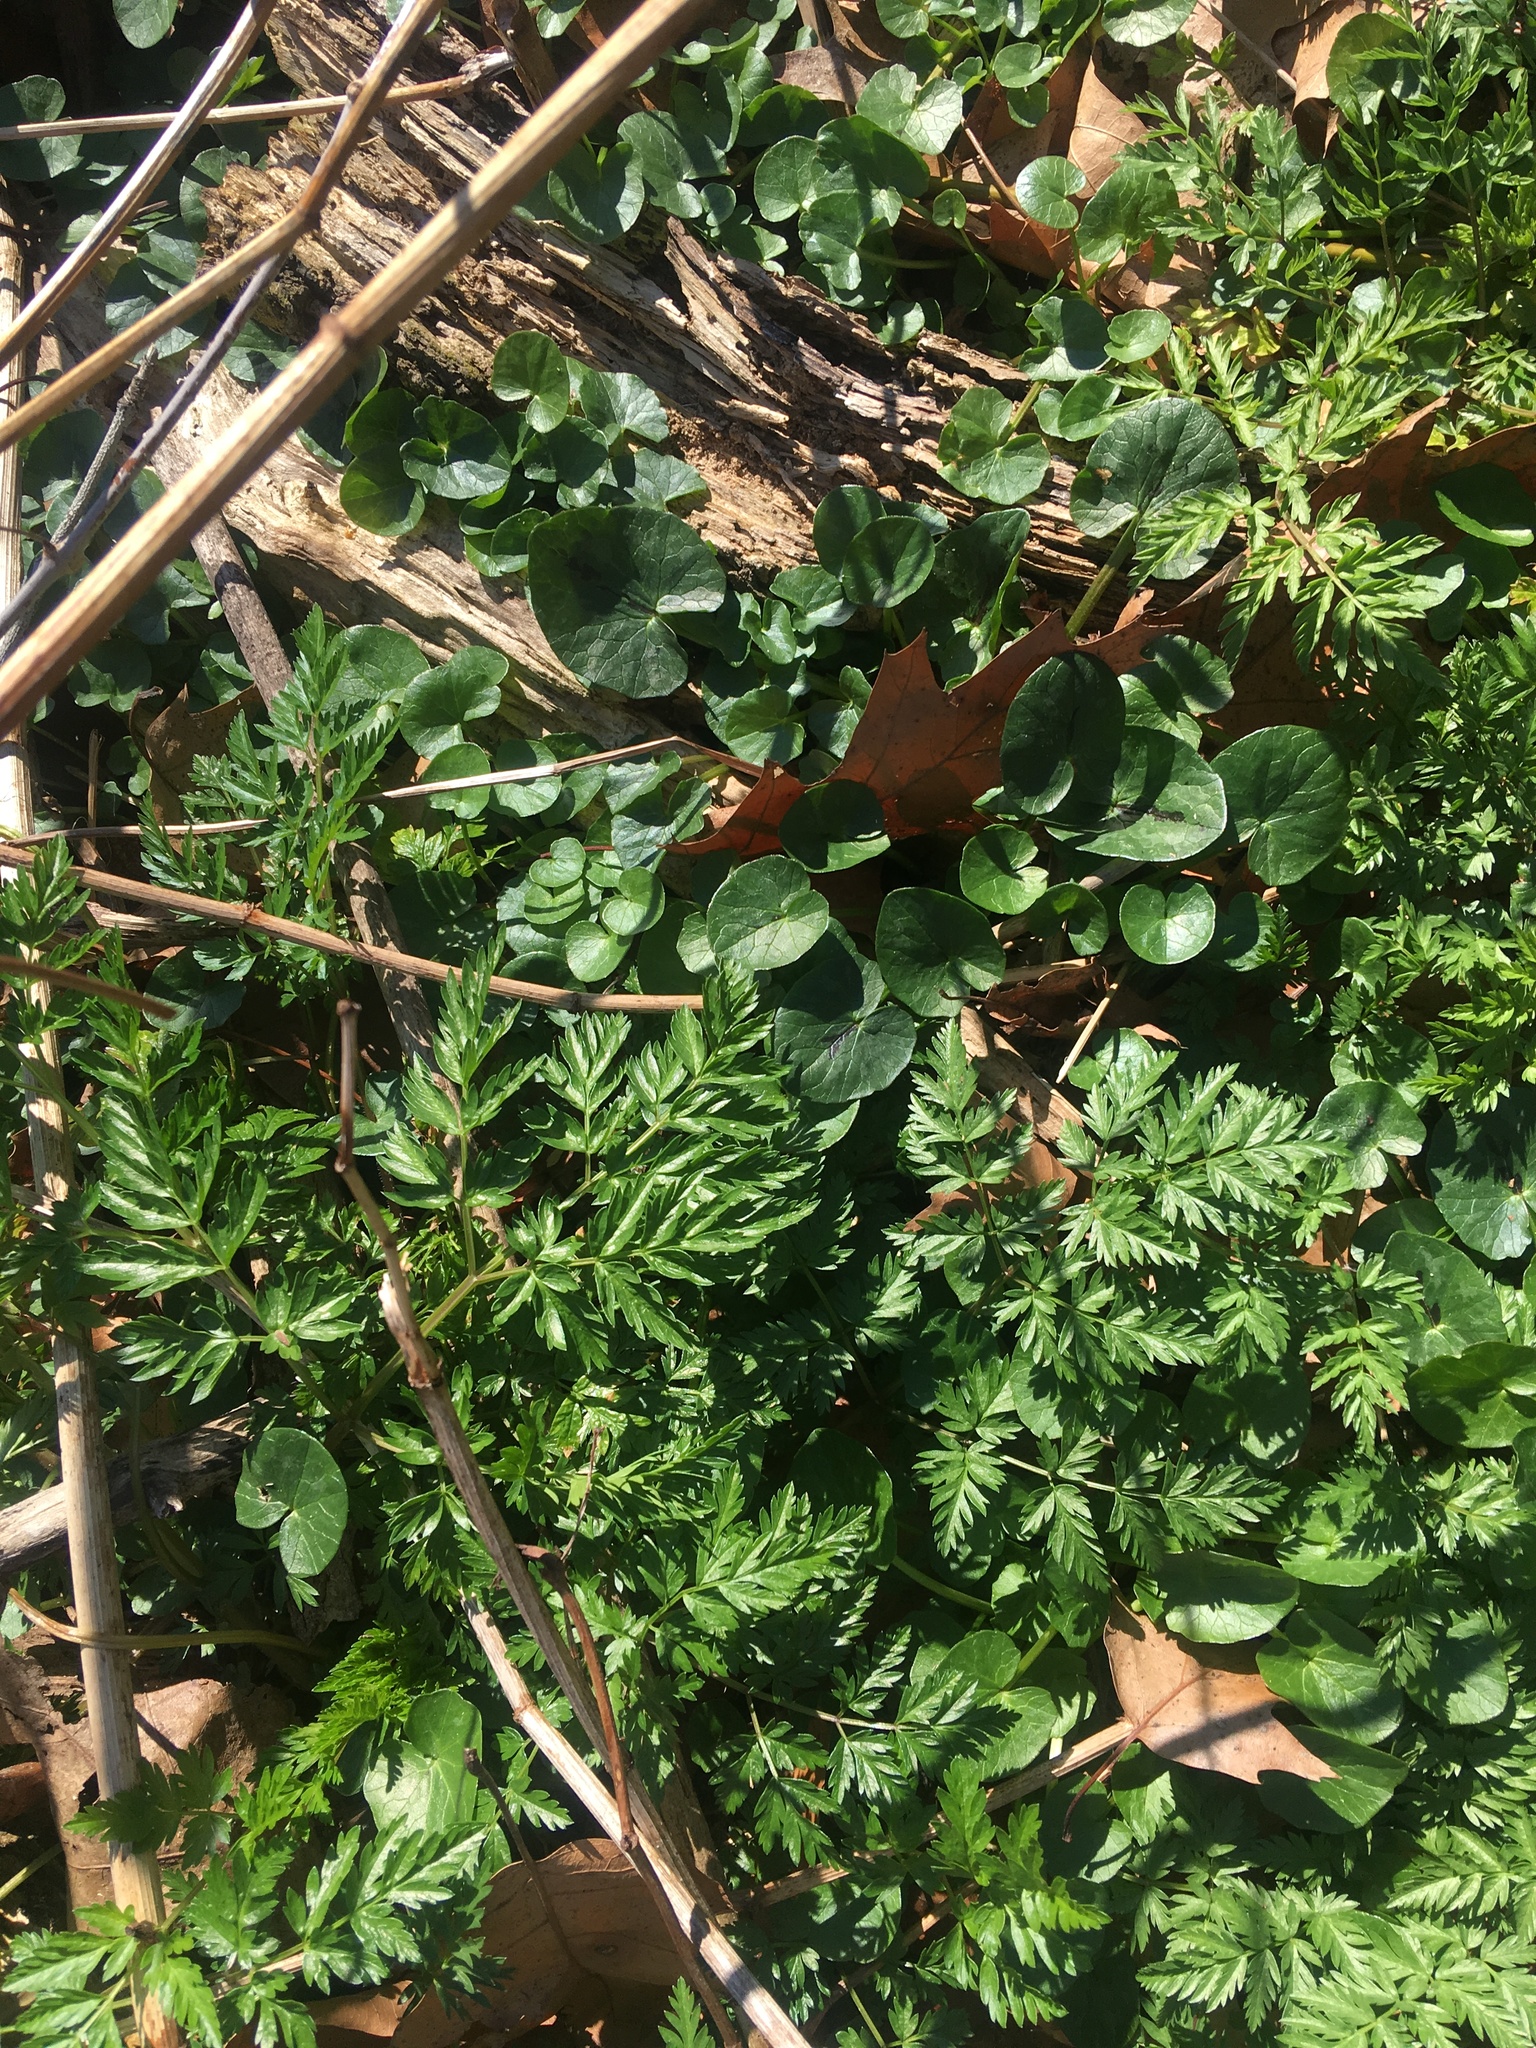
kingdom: Plantae
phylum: Tracheophyta
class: Magnoliopsida
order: Ranunculales
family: Ranunculaceae
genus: Ficaria
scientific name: Ficaria verna
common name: Lesser celandine
